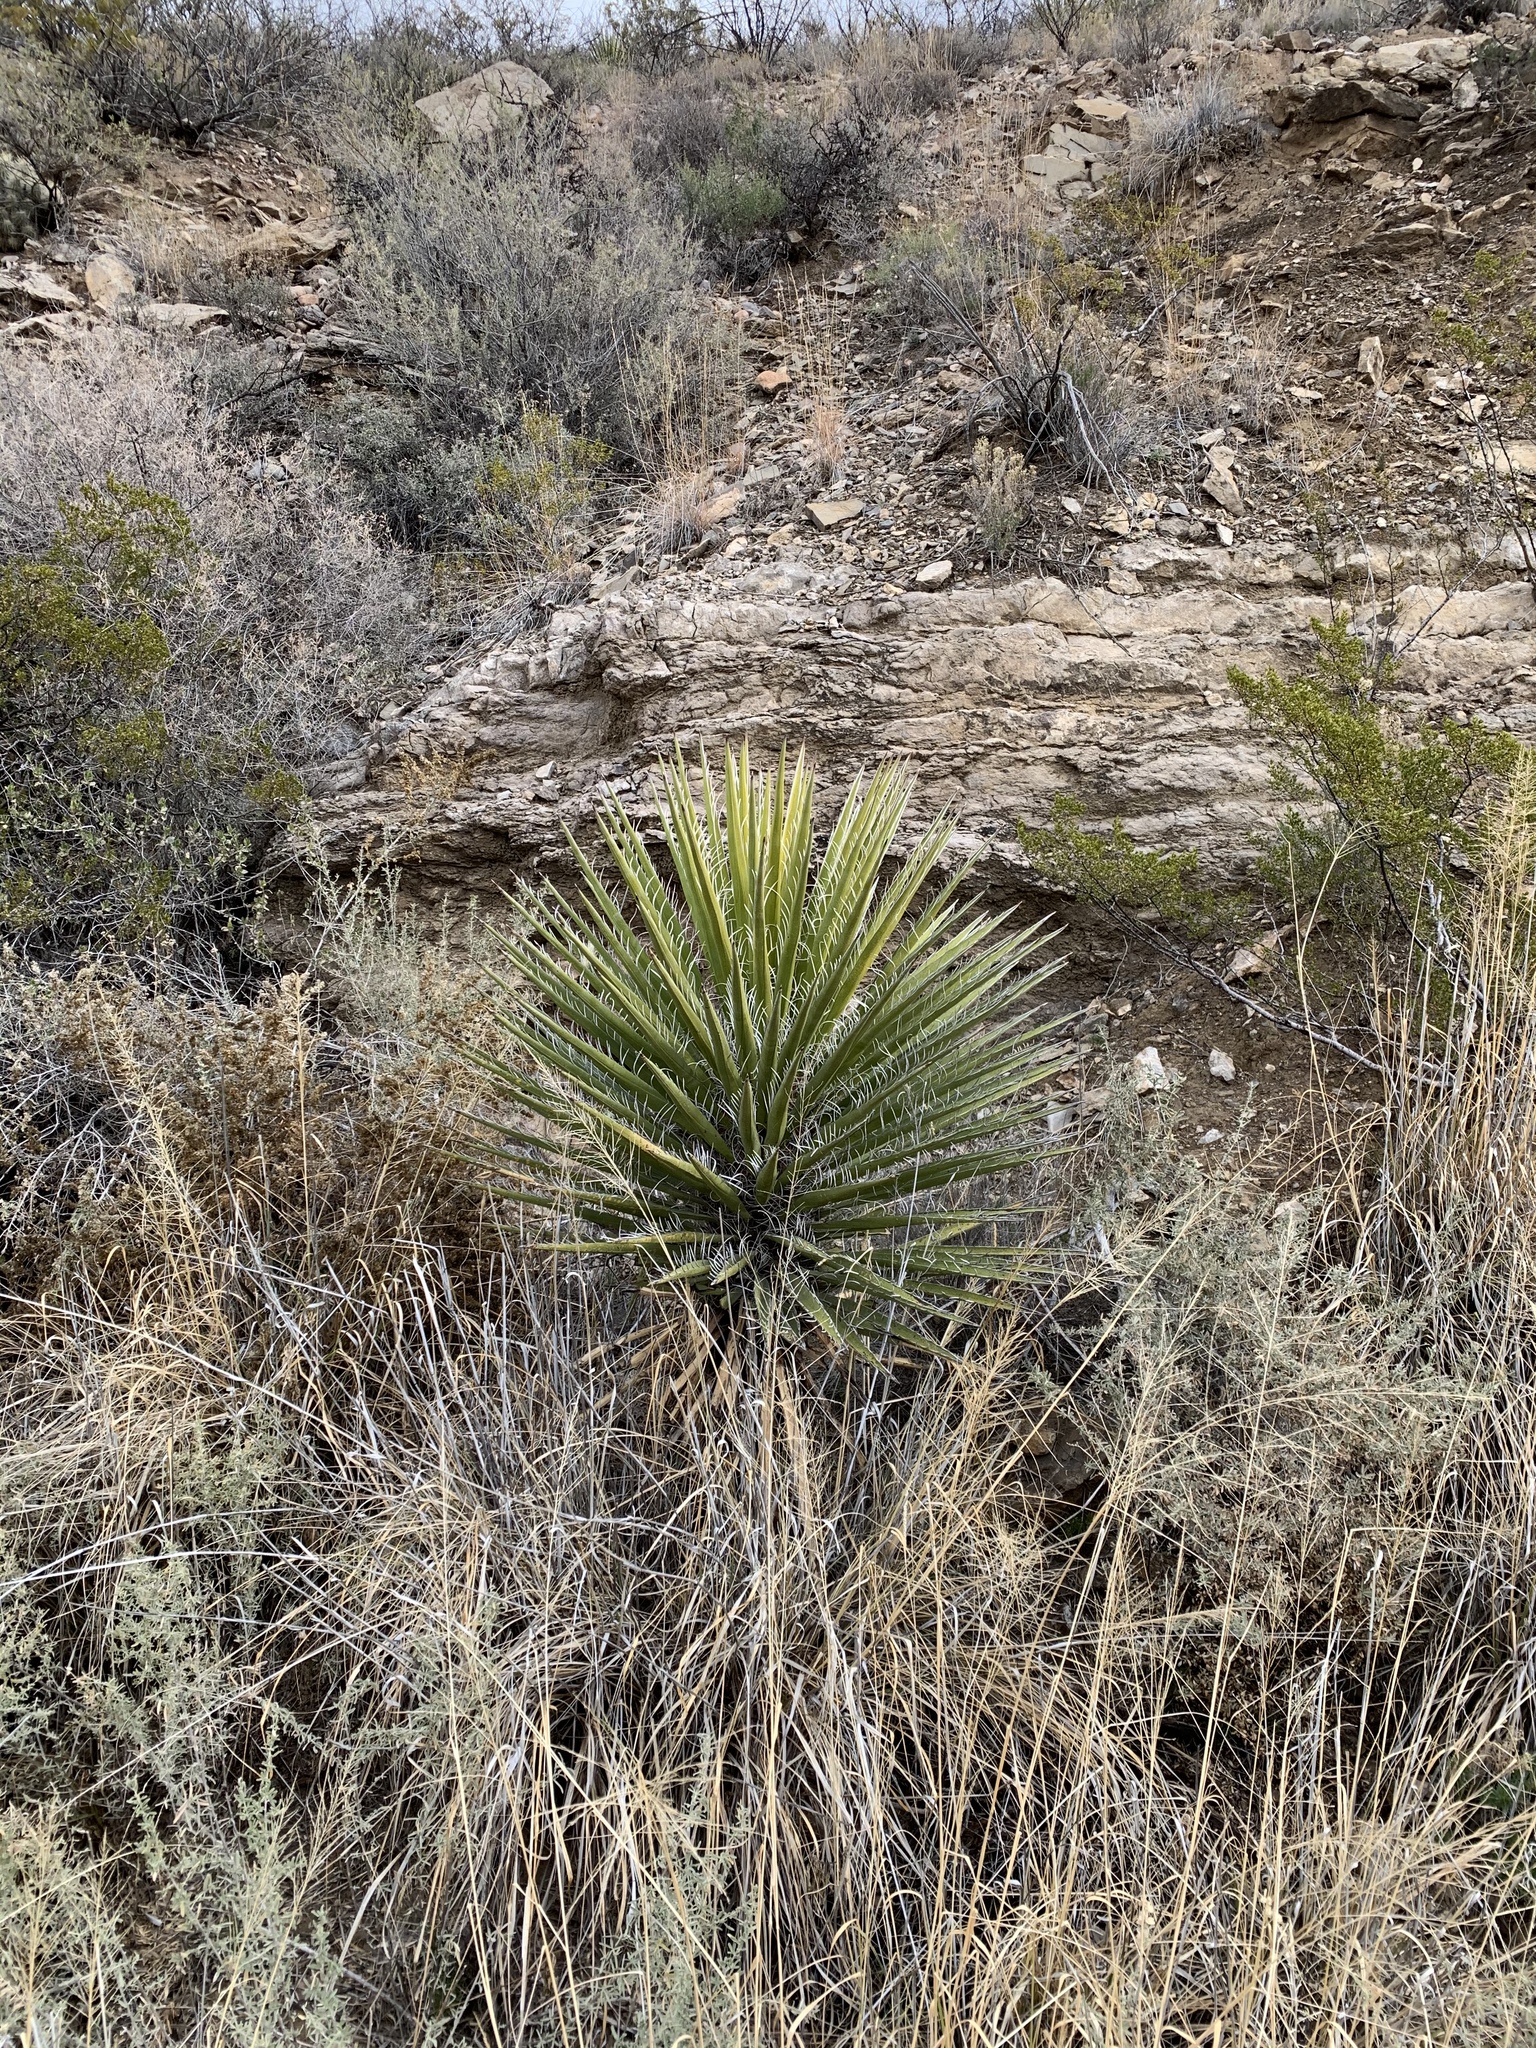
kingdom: Plantae
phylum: Tracheophyta
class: Liliopsida
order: Asparagales
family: Asparagaceae
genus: Yucca
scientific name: Yucca treculiana
